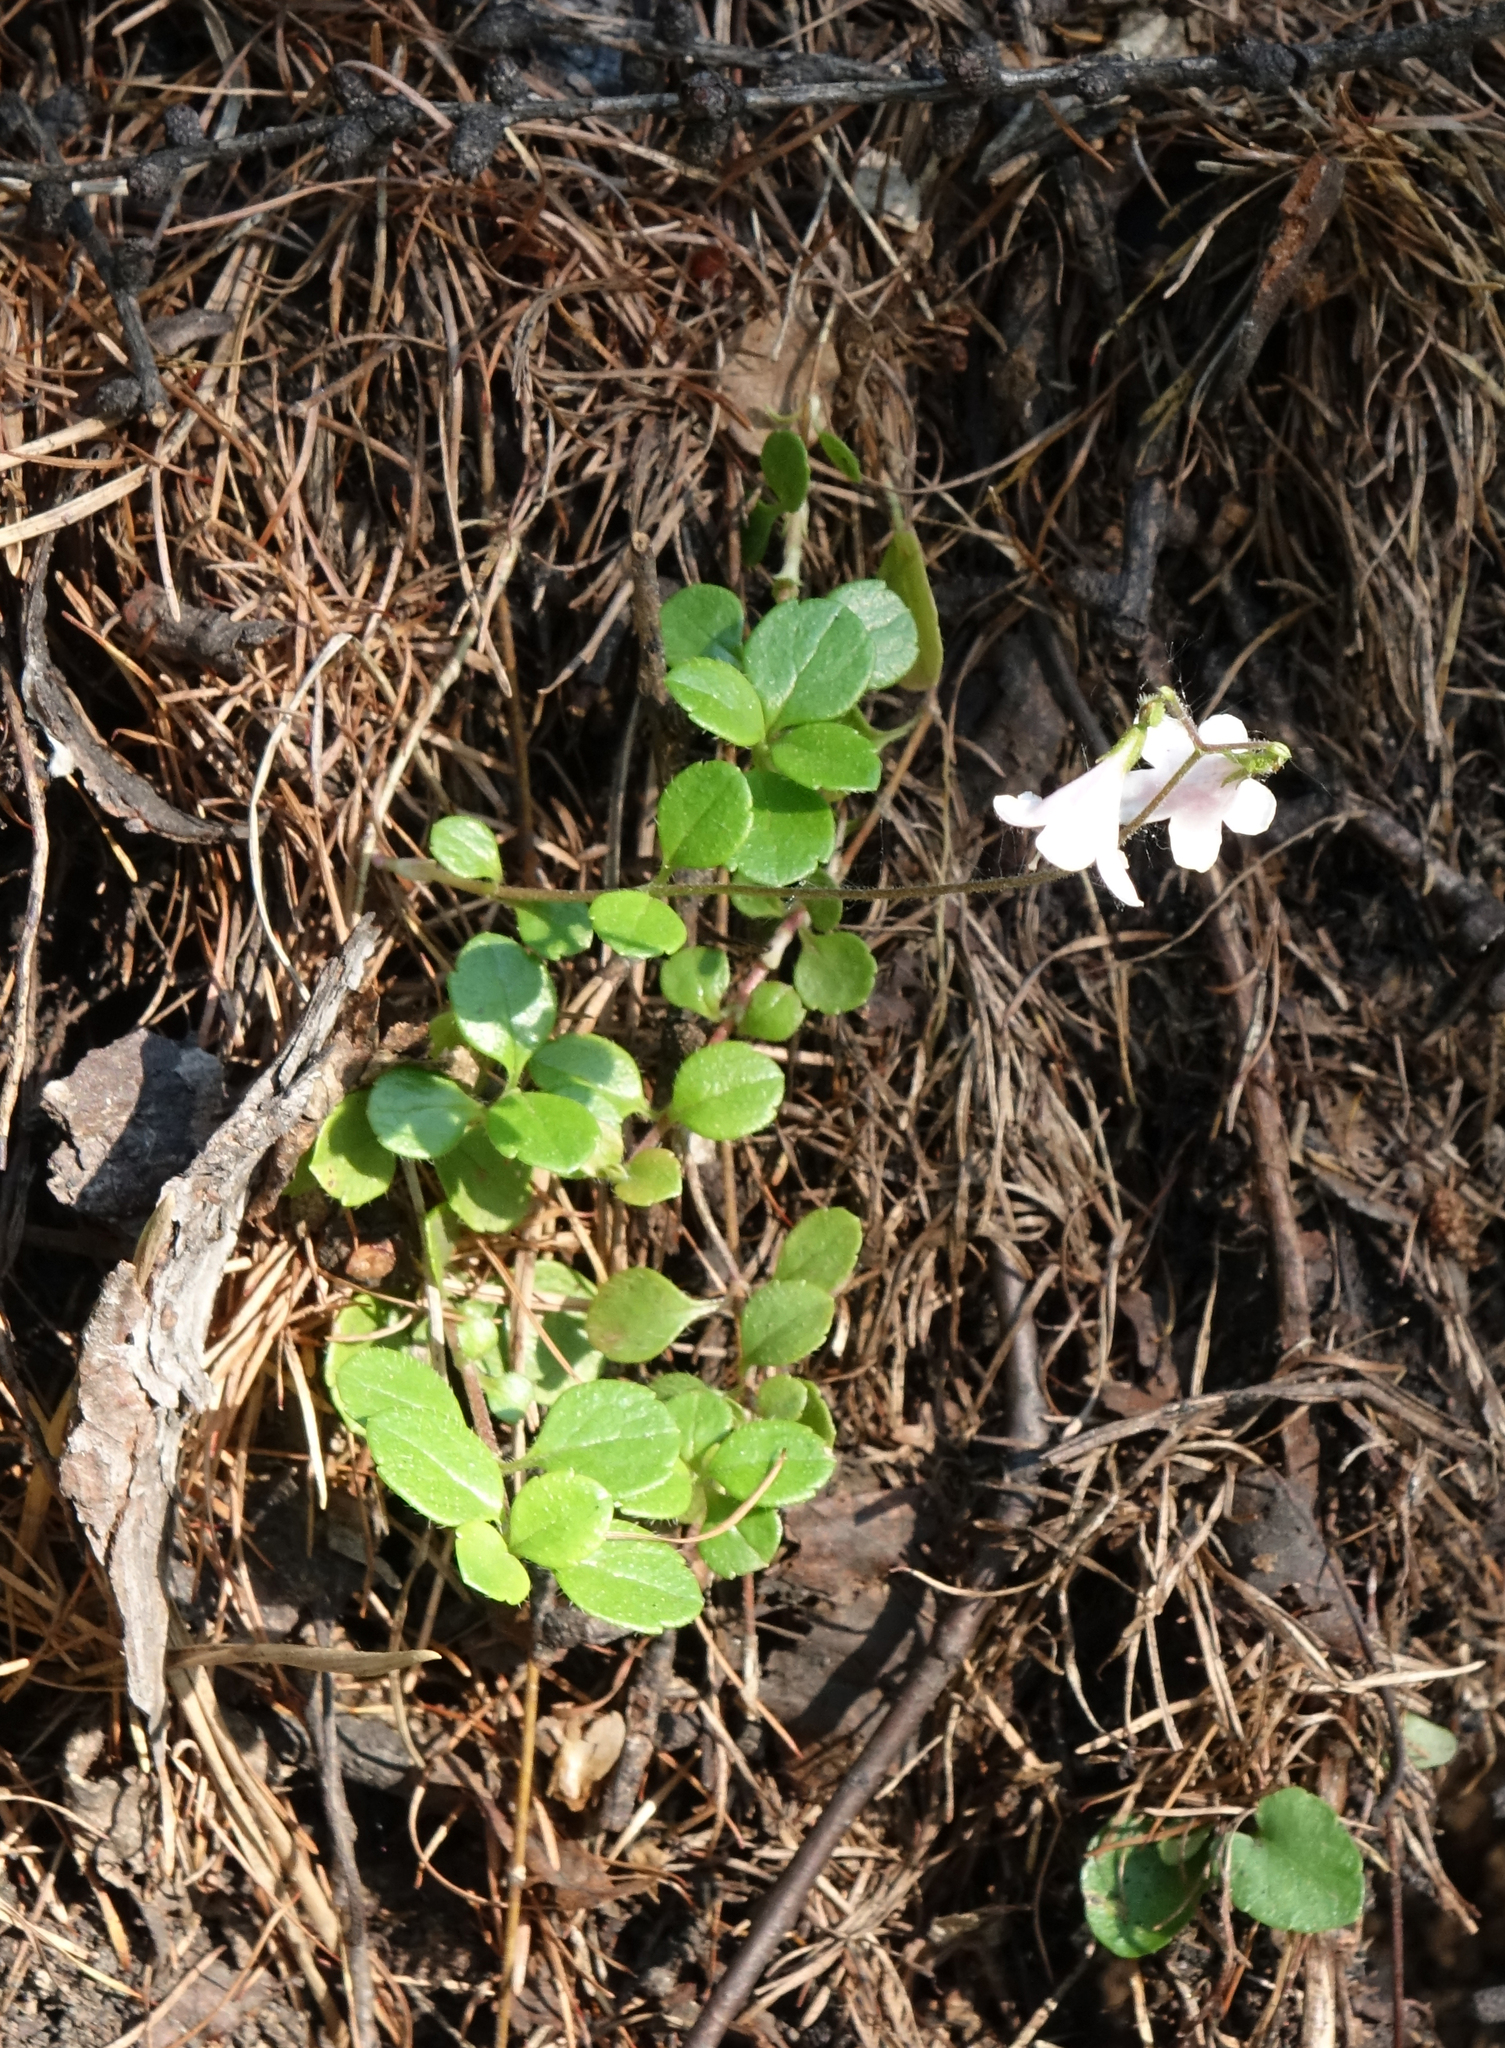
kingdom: Plantae
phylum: Tracheophyta
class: Magnoliopsida
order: Dipsacales
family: Caprifoliaceae
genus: Linnaea
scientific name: Linnaea borealis
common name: Twinflower
